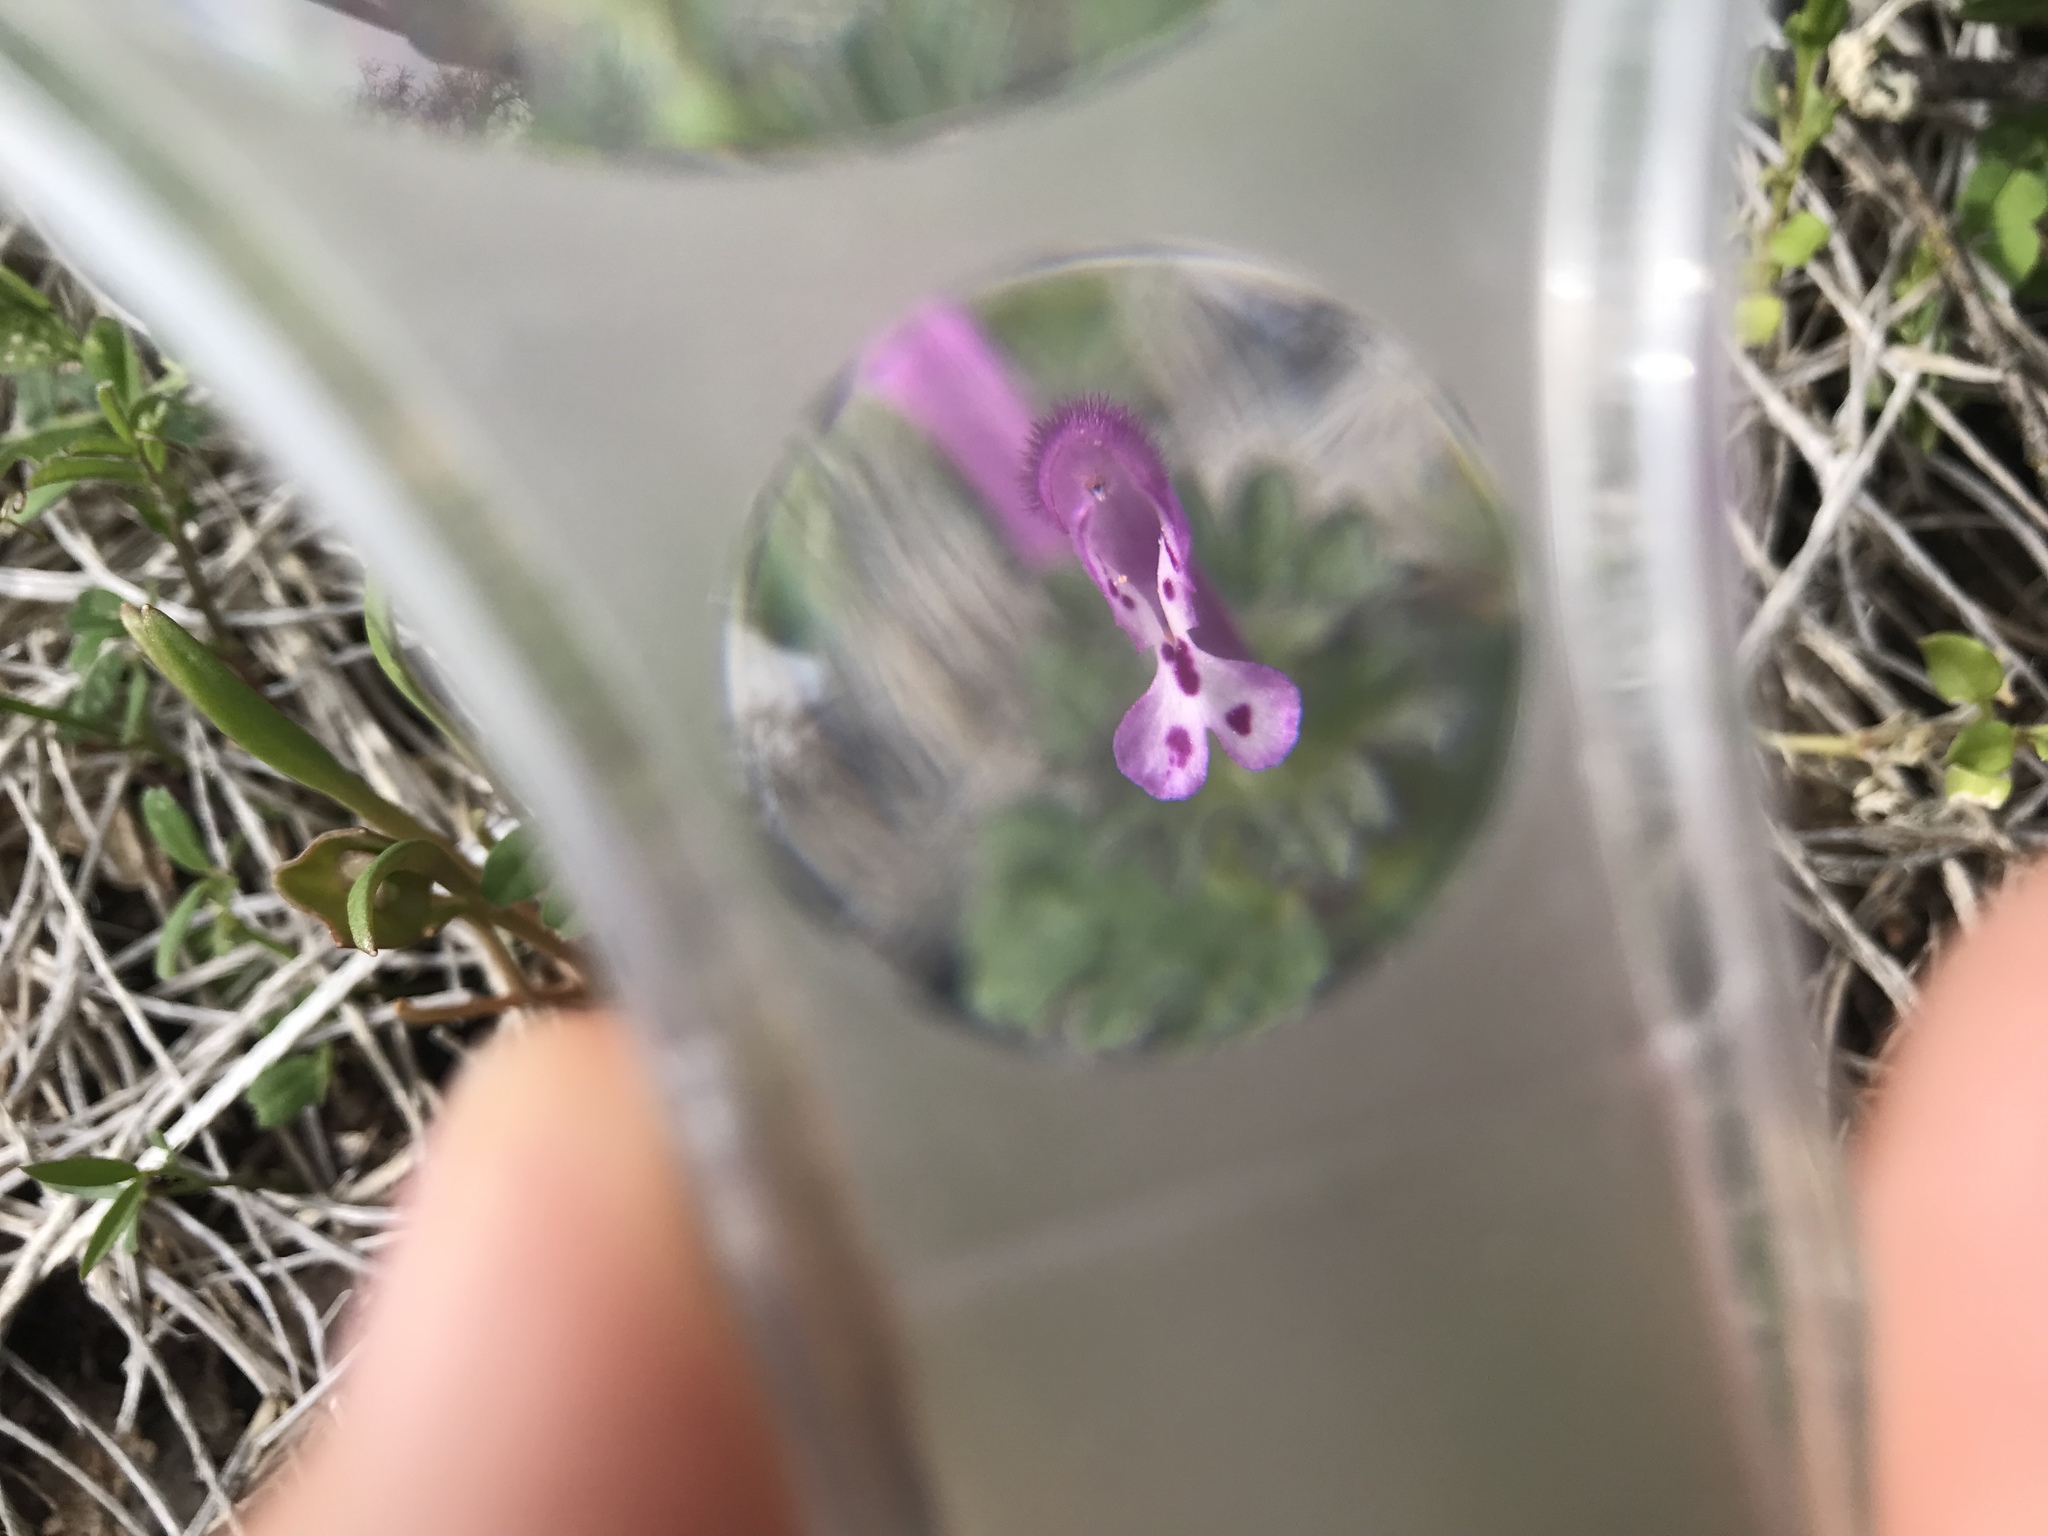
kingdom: Plantae
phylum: Tracheophyta
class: Magnoliopsida
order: Lamiales
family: Lamiaceae
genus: Lamium
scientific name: Lamium amplexicaule
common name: Henbit dead-nettle
